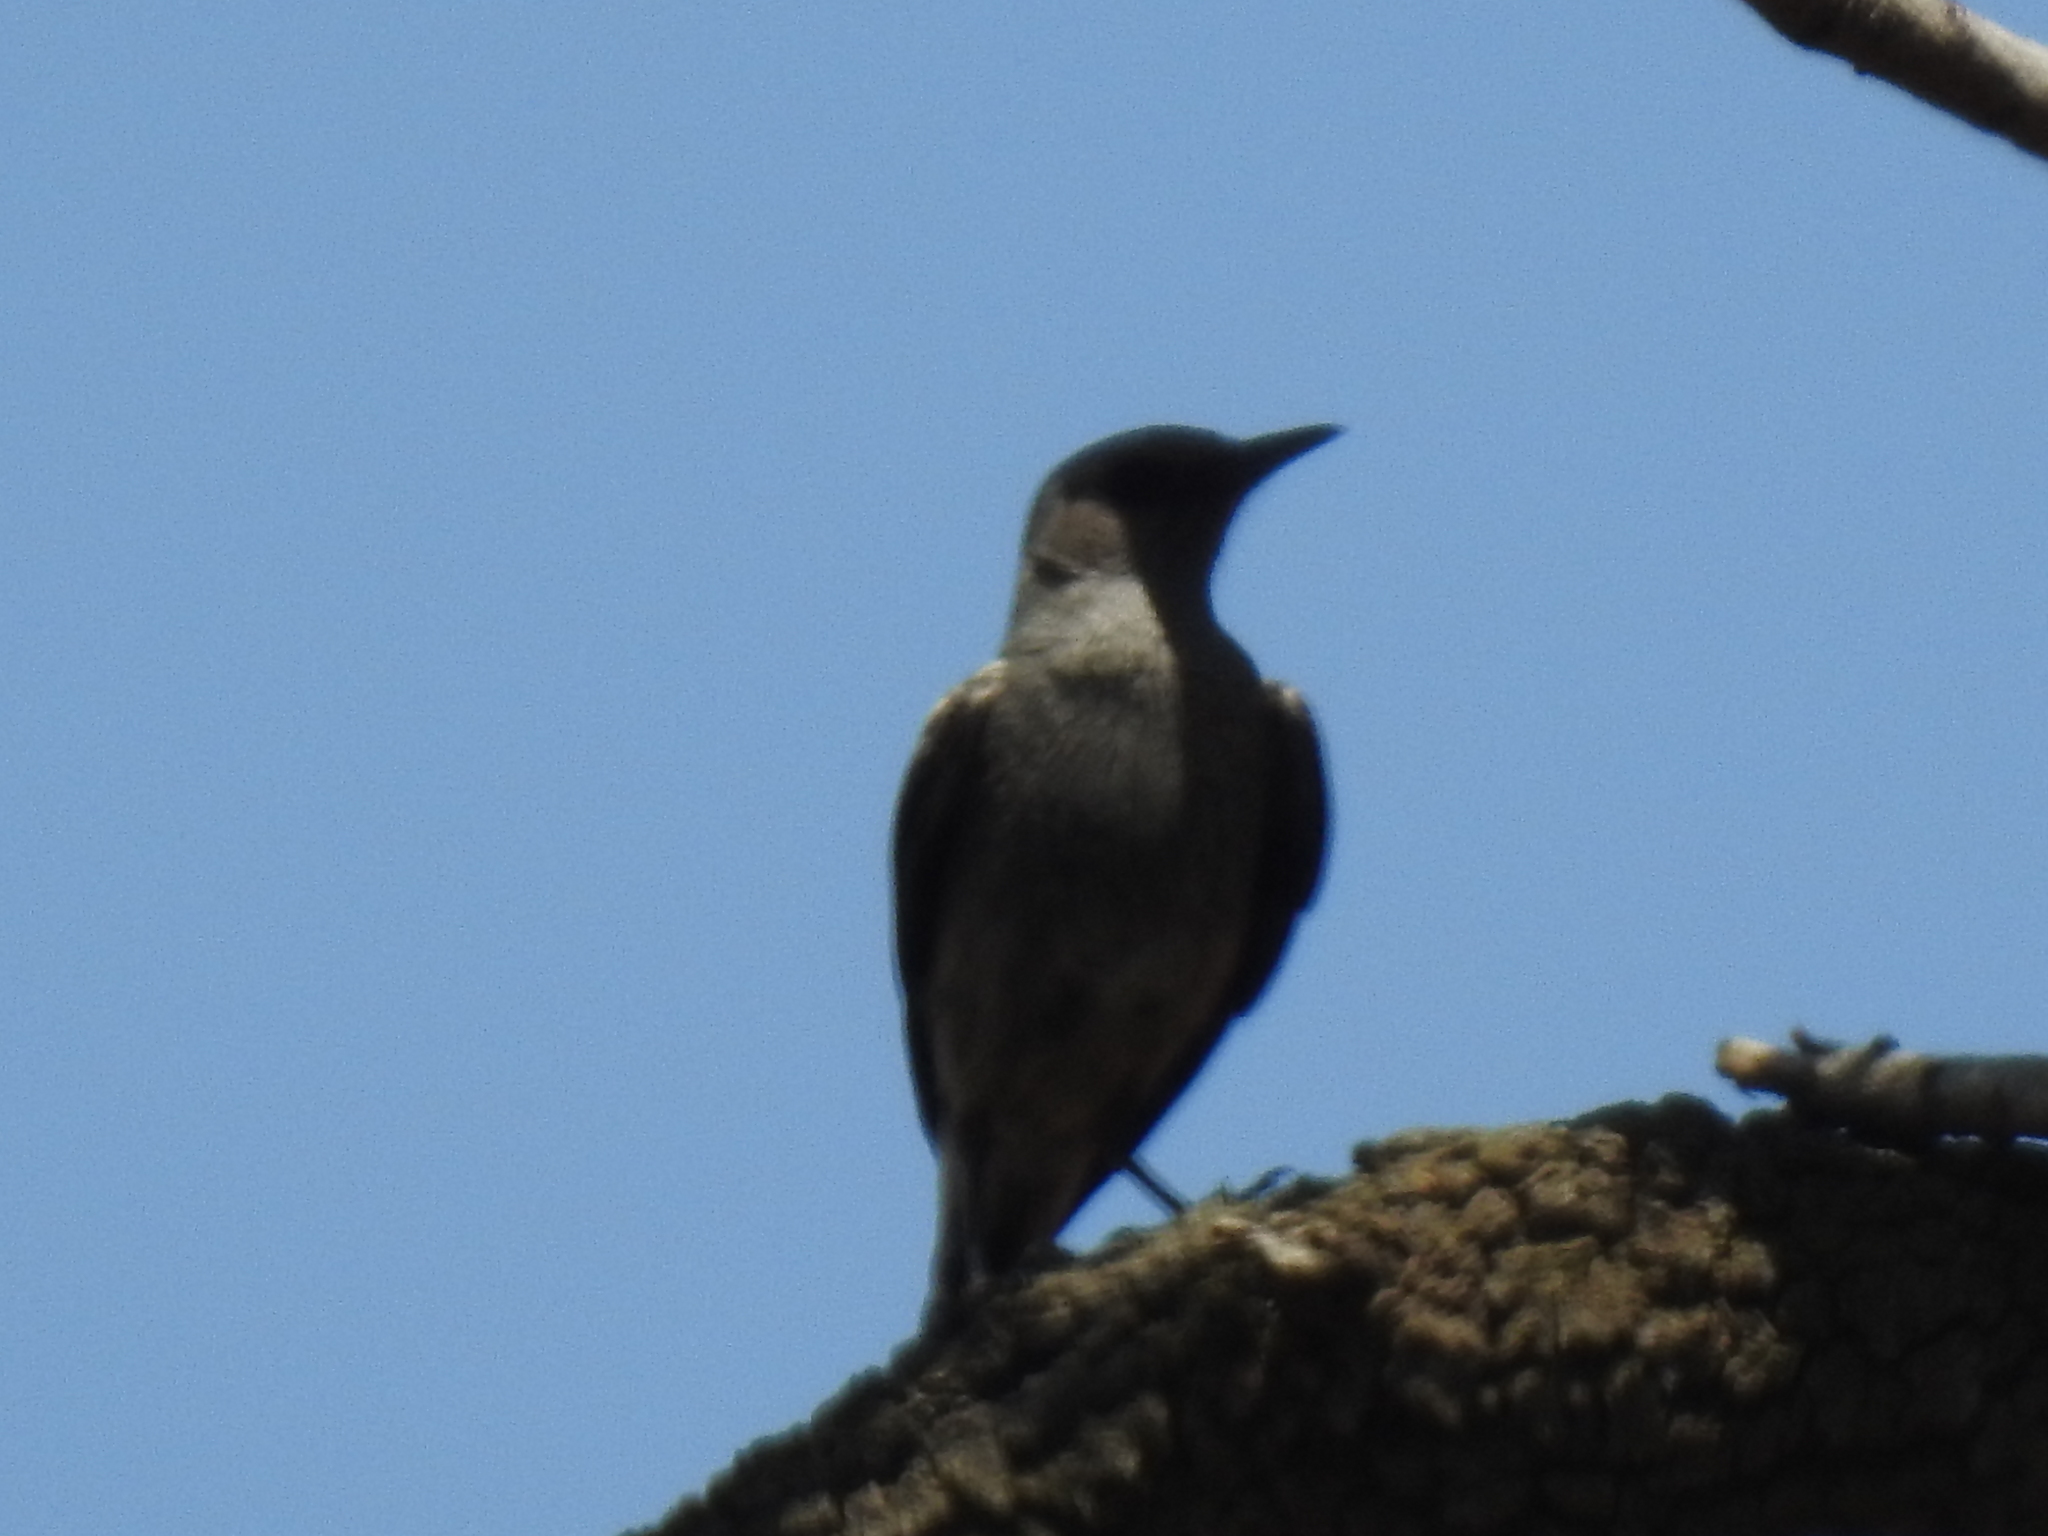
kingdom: Animalia
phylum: Chordata
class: Aves
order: Passeriformes
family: Muscicapidae
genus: Oenanthe
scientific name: Oenanthe monticola
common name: Mountain wheatear
